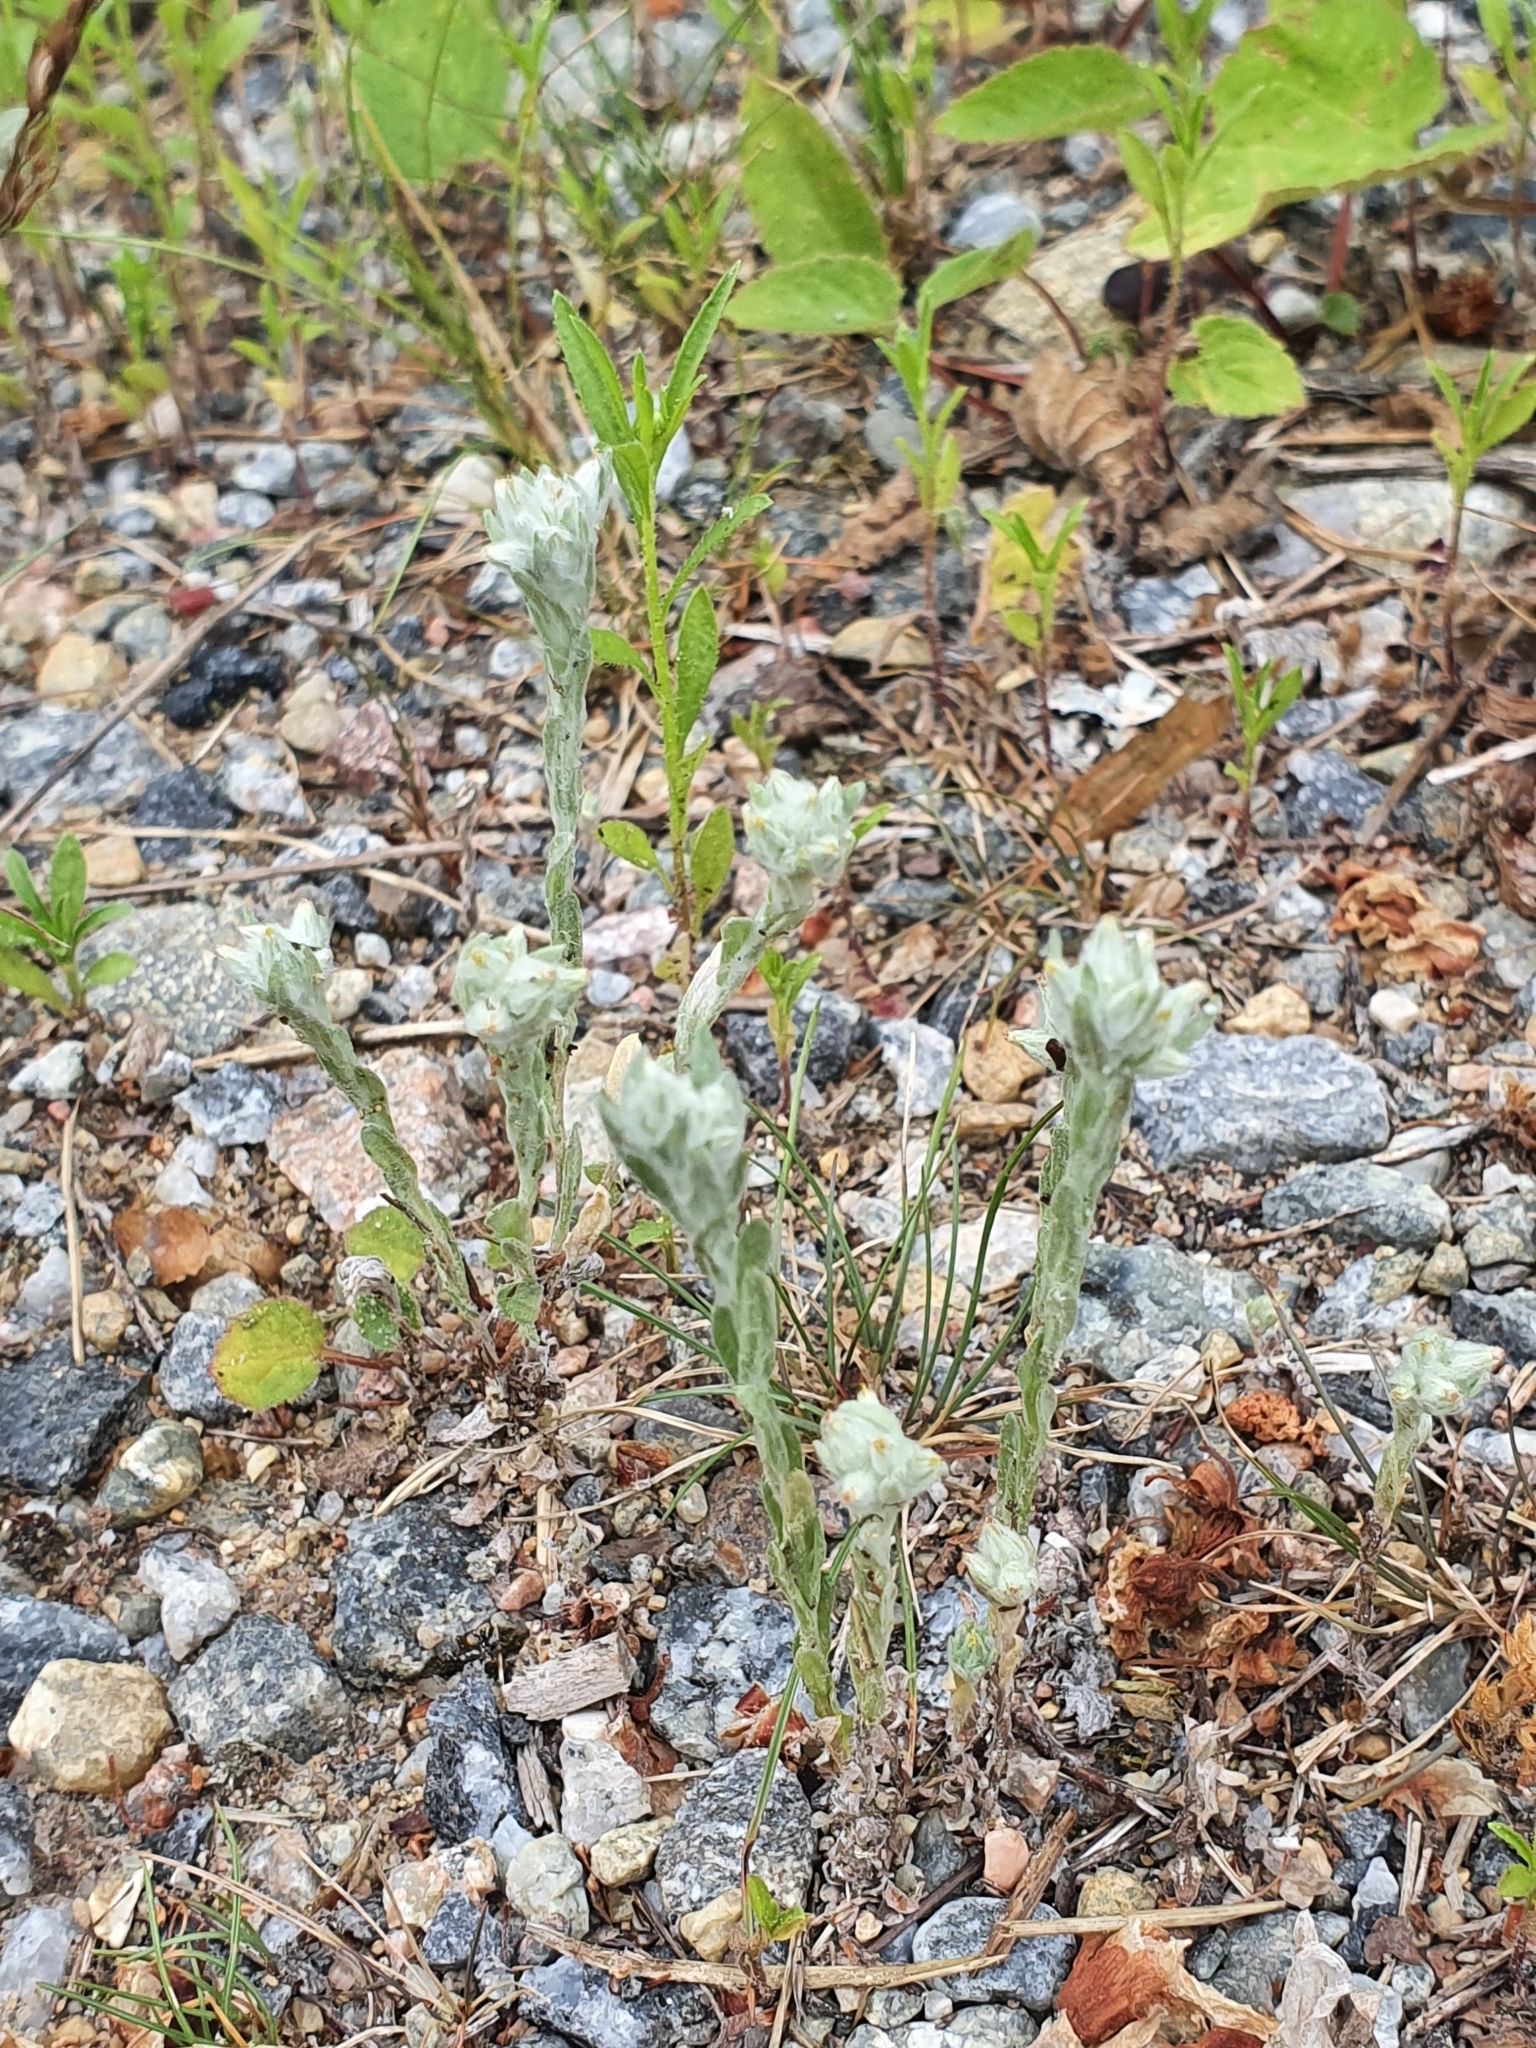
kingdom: Plantae
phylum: Tracheophyta
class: Magnoliopsida
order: Asterales
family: Asteraceae
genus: Filago
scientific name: Filago arvensis
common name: Field cudweed
